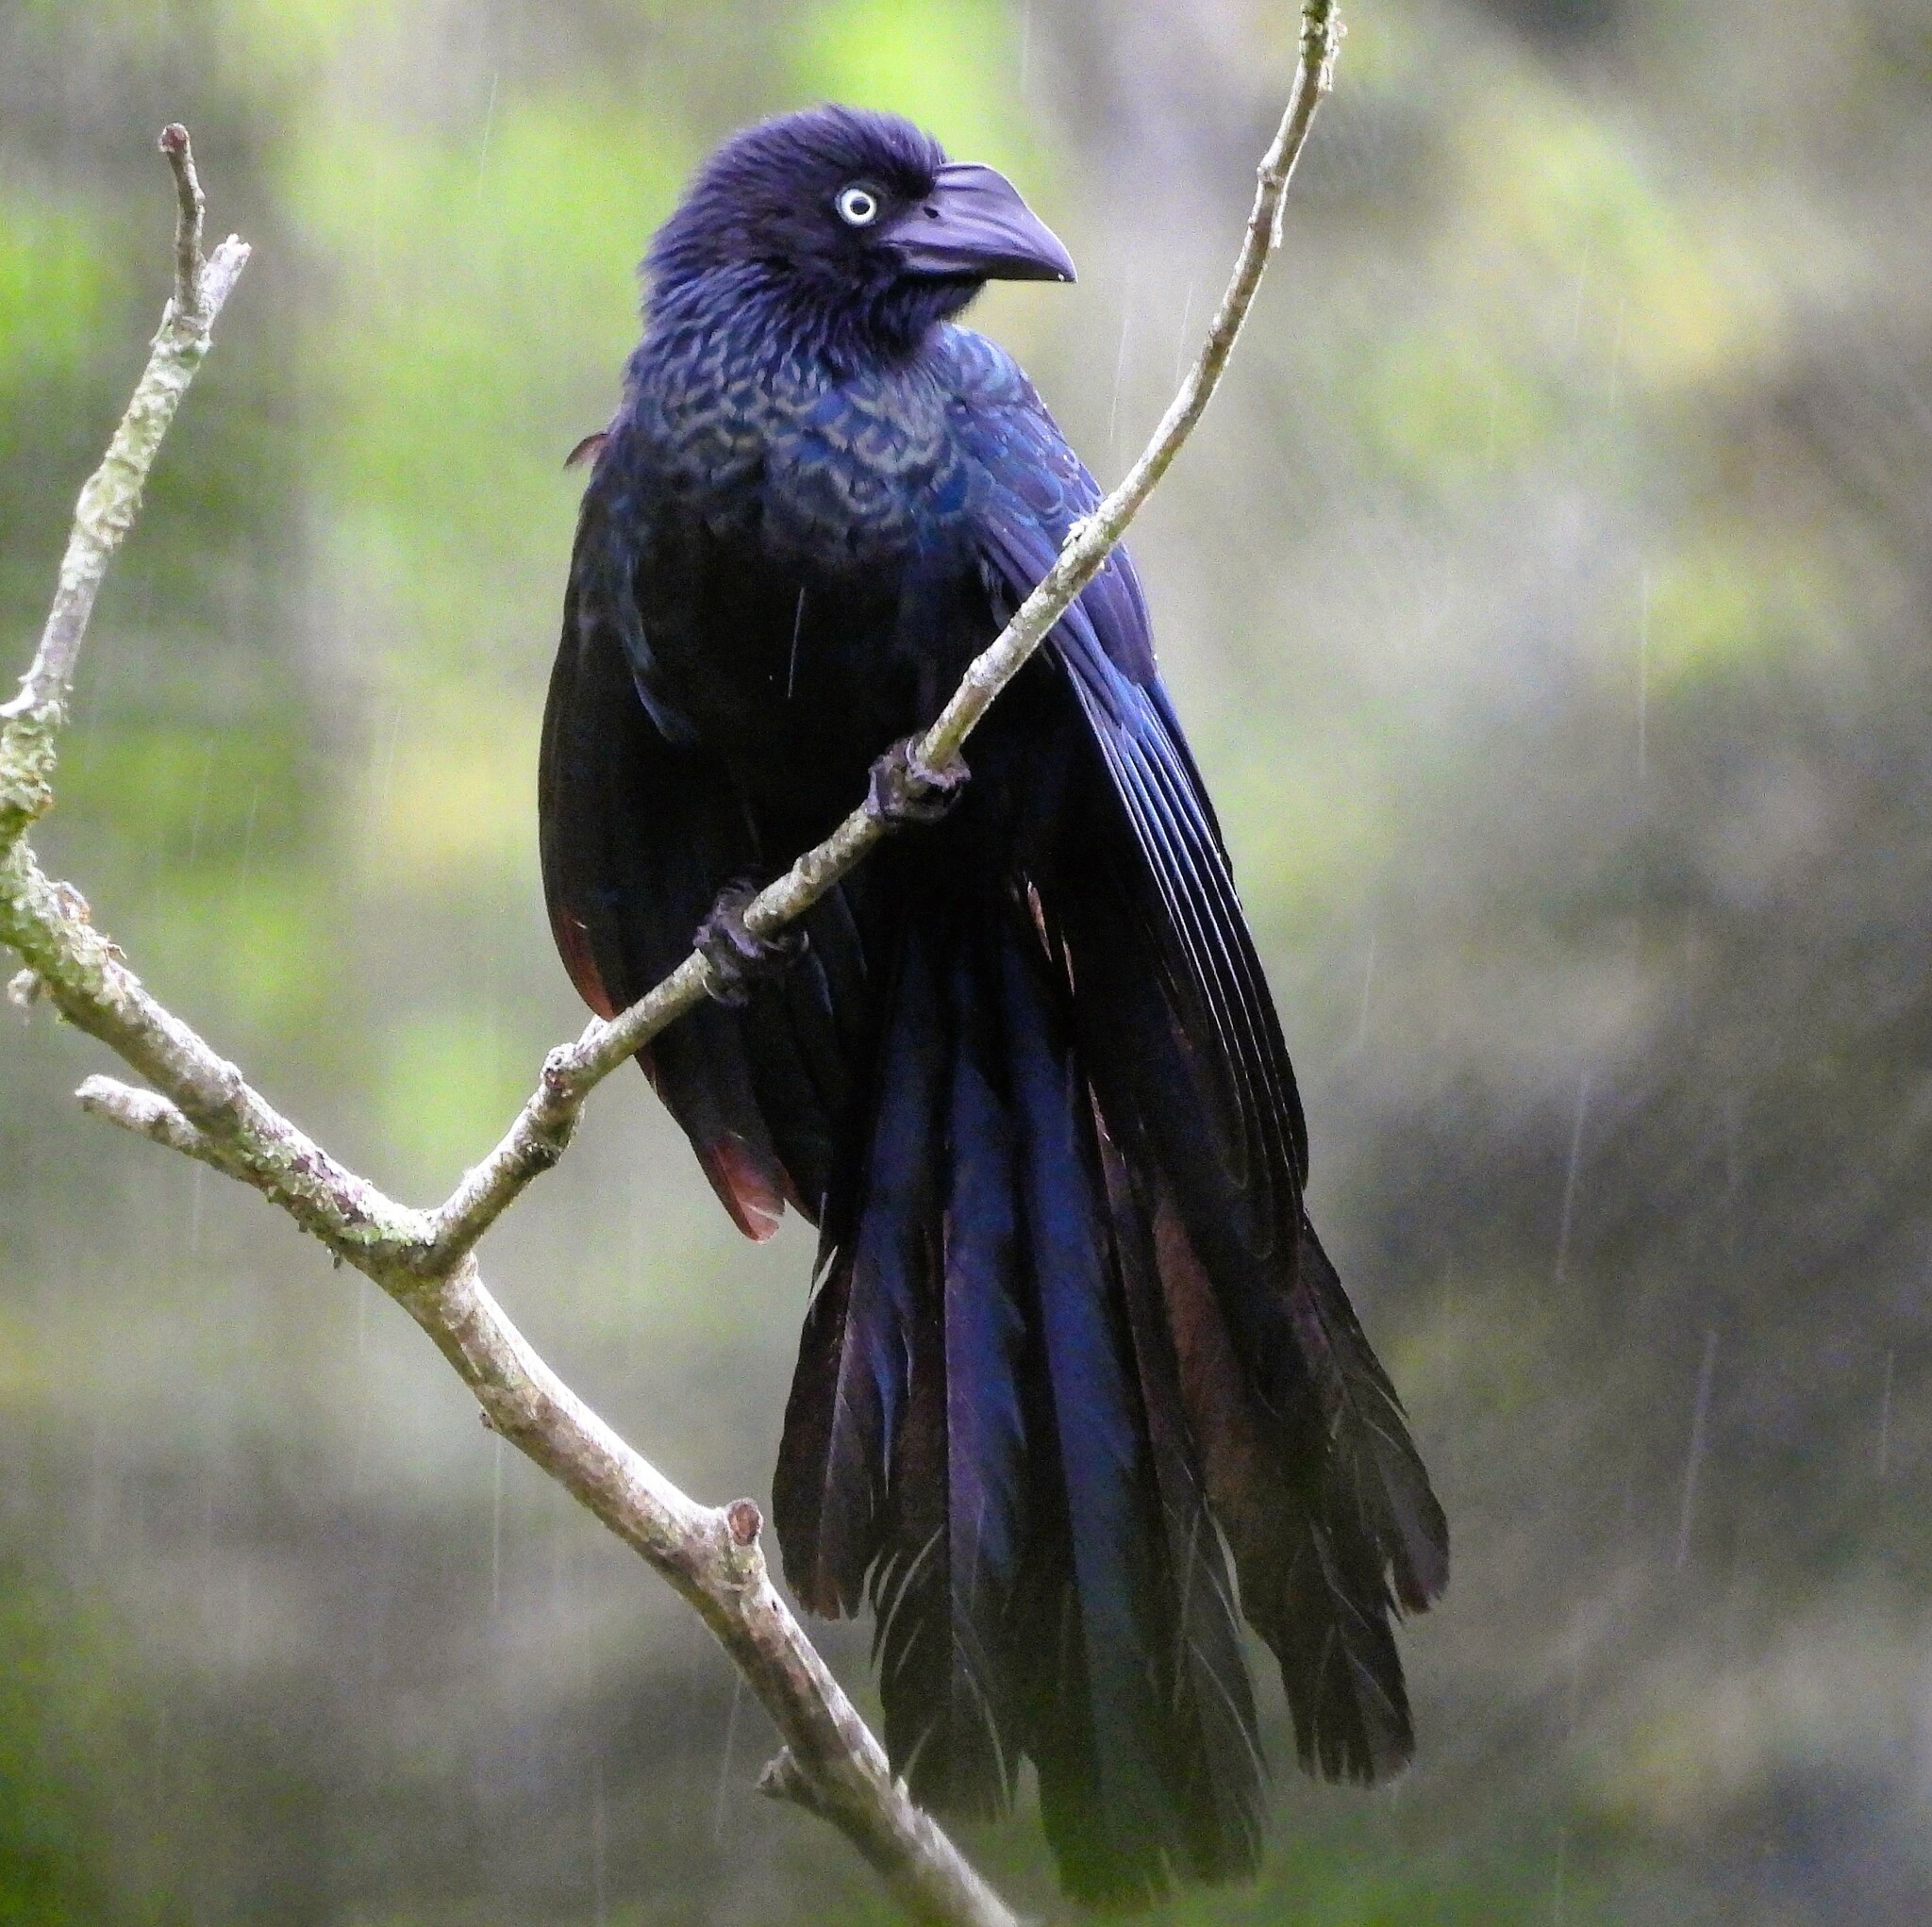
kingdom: Animalia
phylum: Chordata
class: Aves
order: Cuculiformes
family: Cuculidae
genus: Crotophaga
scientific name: Crotophaga major
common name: Greater ani
